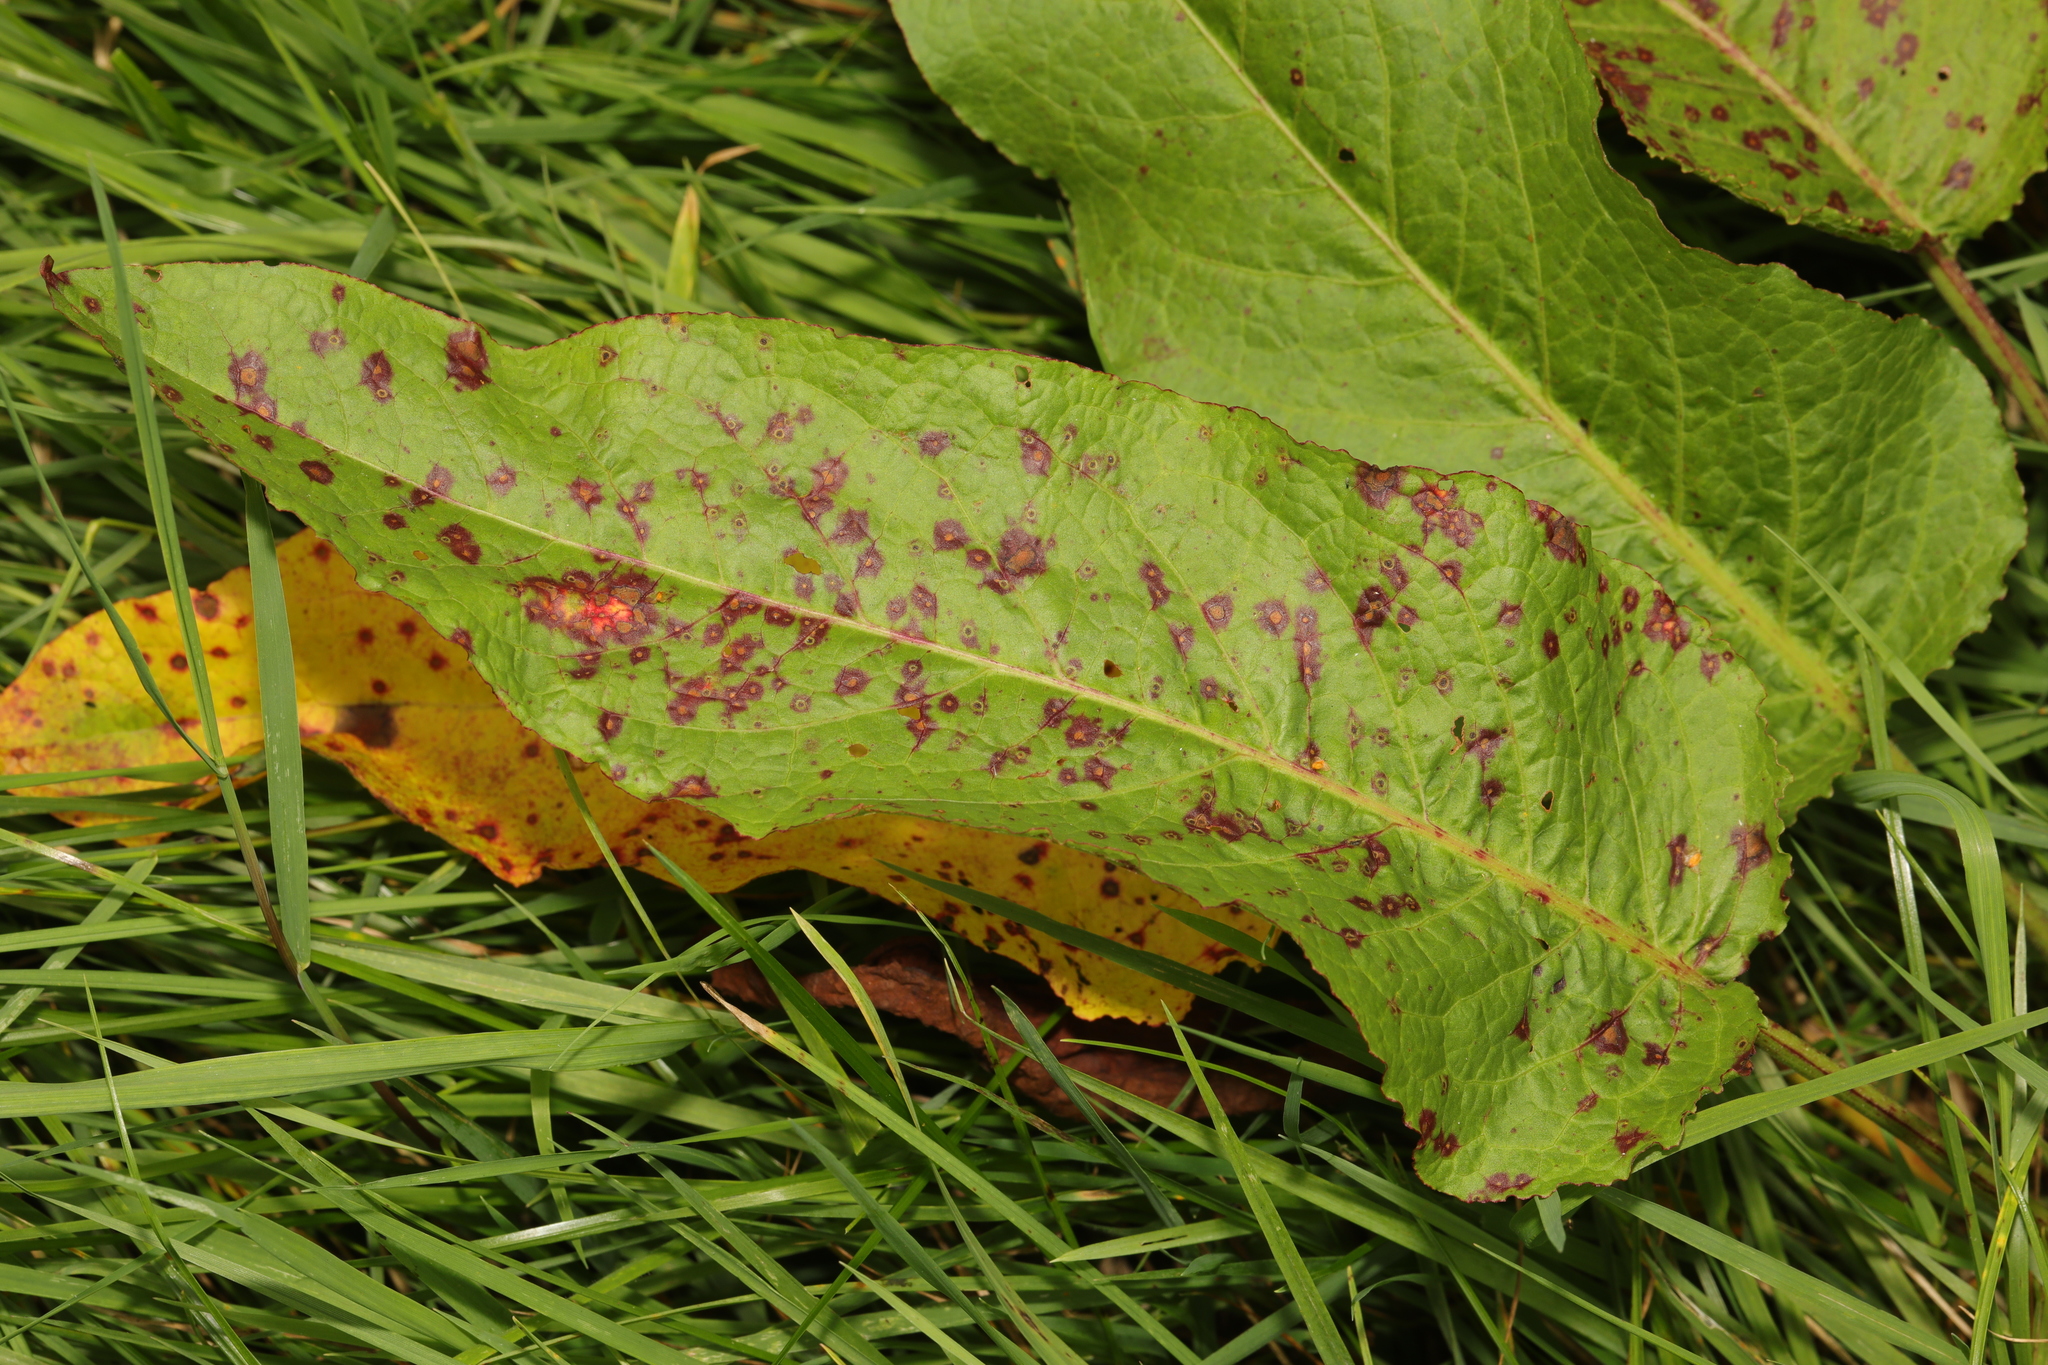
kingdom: Plantae
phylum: Tracheophyta
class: Magnoliopsida
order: Caryophyllales
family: Polygonaceae
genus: Rumex
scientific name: Rumex obtusifolius
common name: Bitter dock
